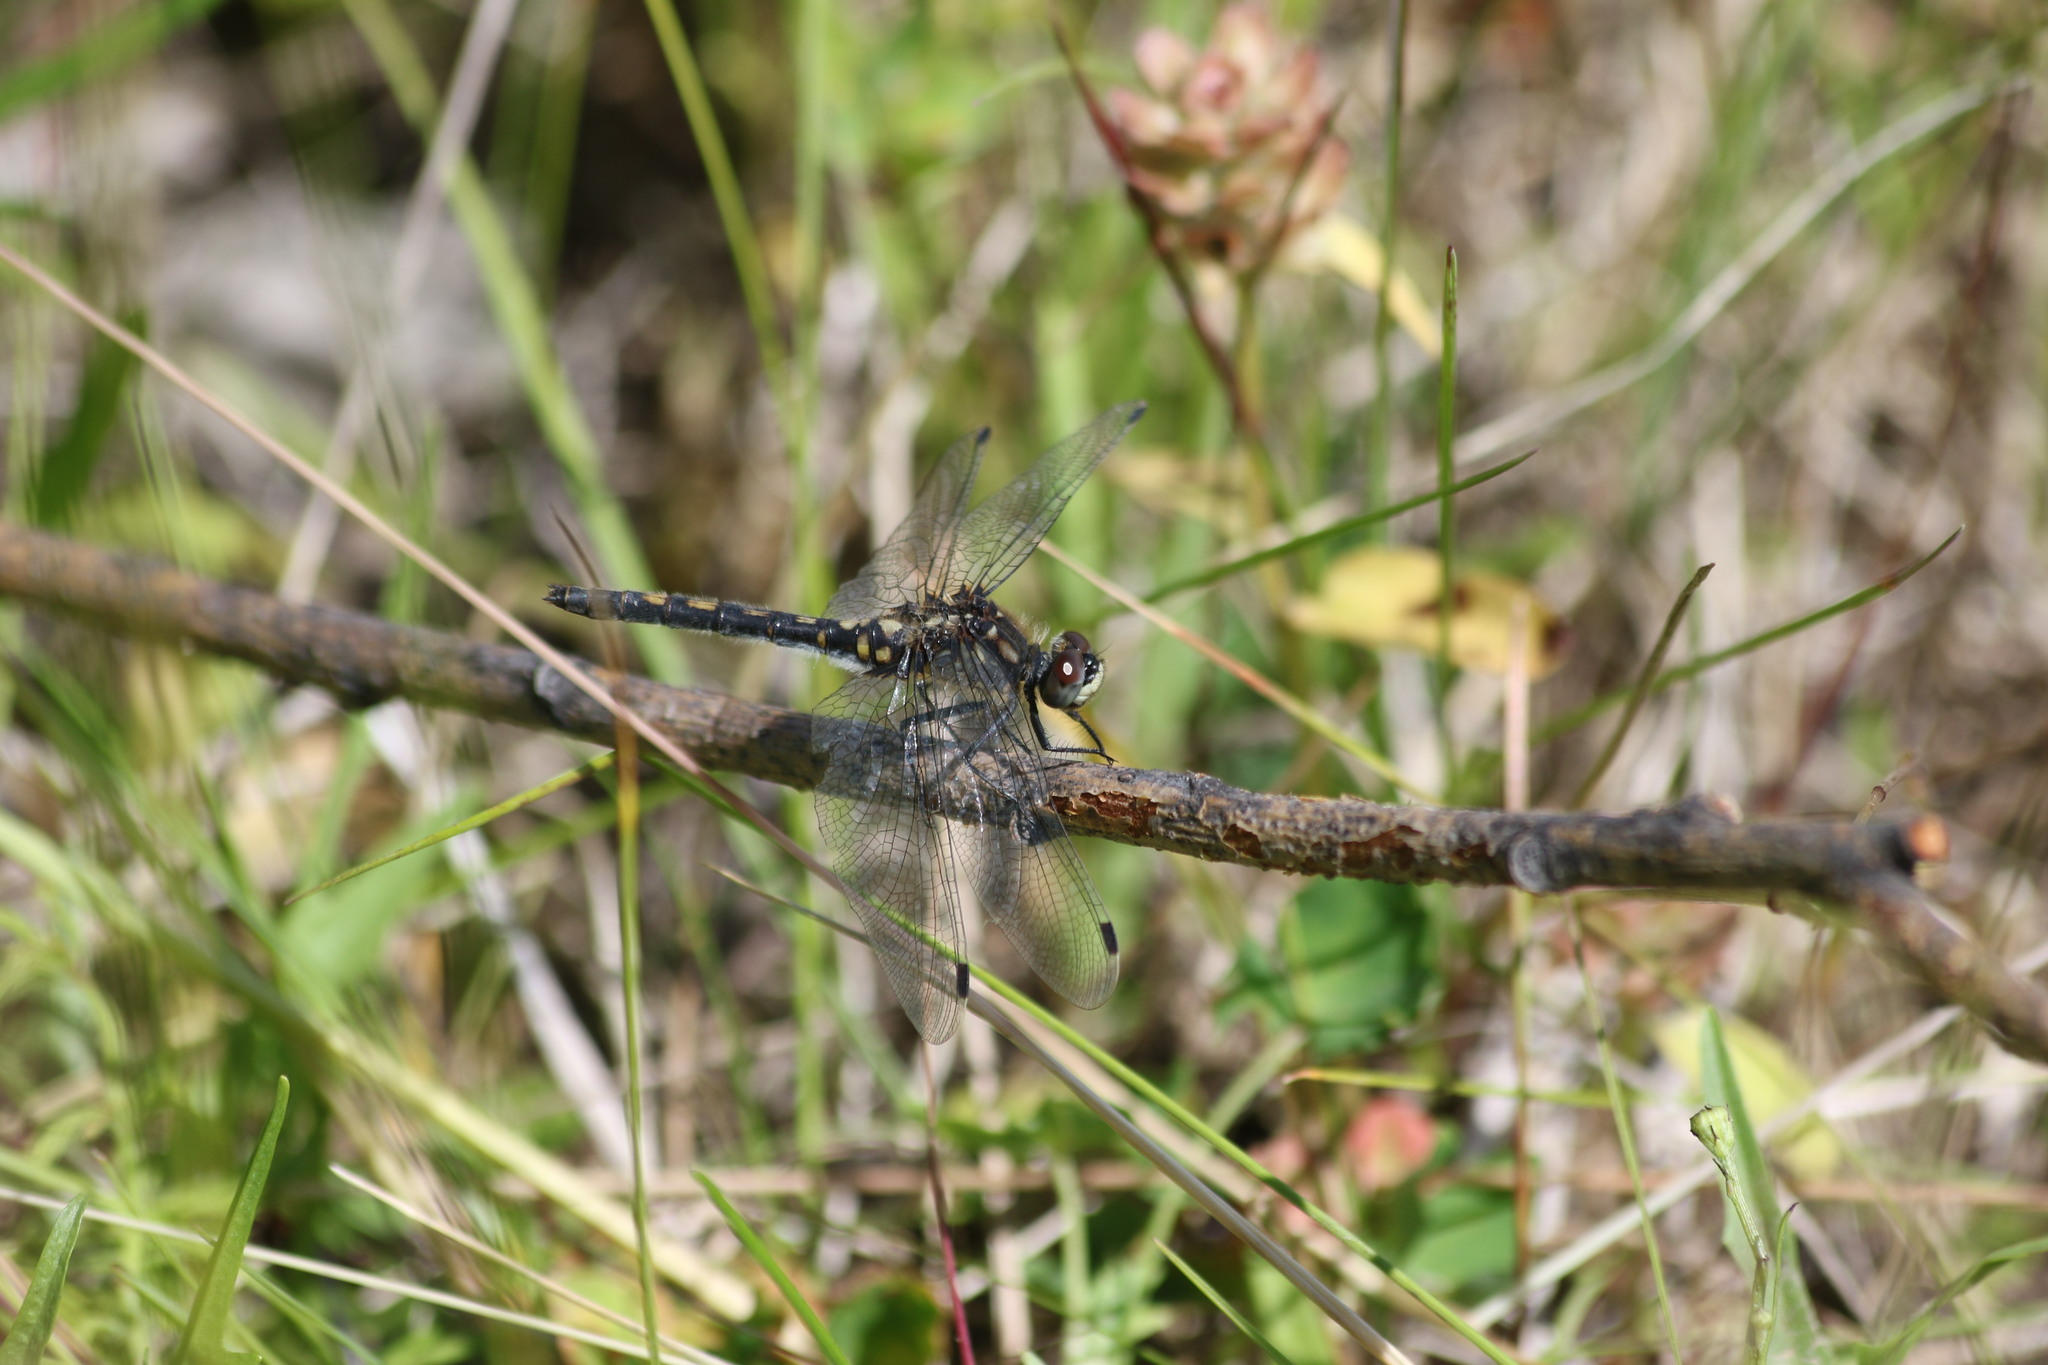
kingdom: Animalia
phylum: Arthropoda
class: Insecta
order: Odonata
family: Libellulidae
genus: Leucorrhinia
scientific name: Leucorrhinia dubia
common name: White-faced darter
